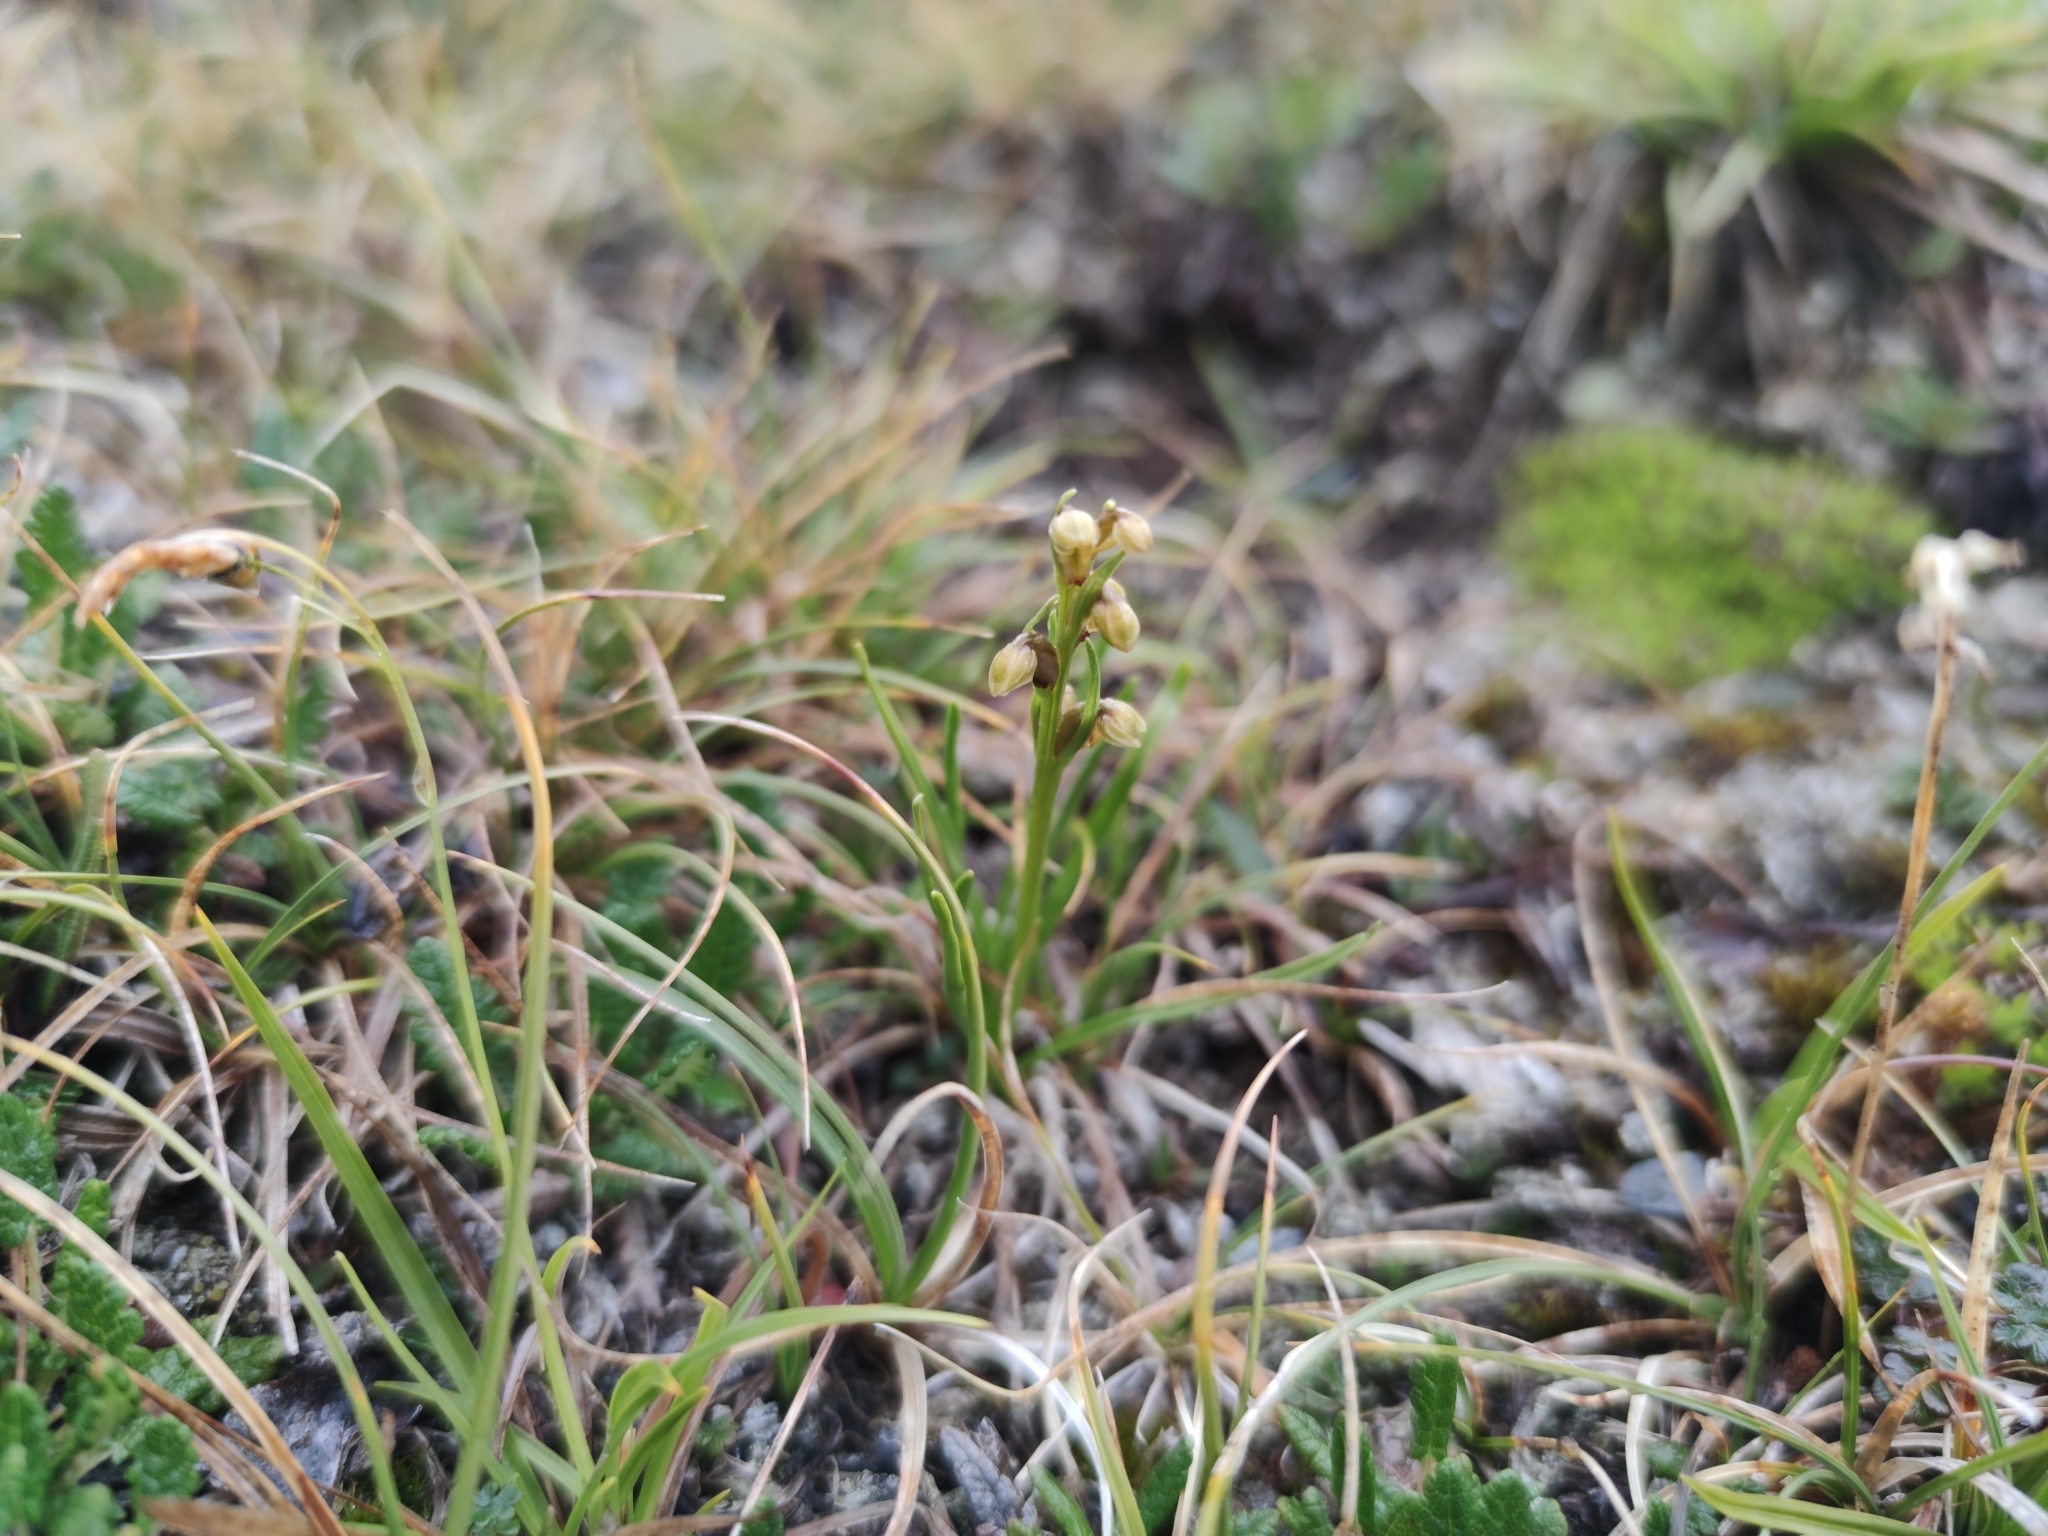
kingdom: Plantae
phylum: Tracheophyta
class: Liliopsida
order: Asparagales
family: Orchidaceae
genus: Chamorchis
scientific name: Chamorchis alpina
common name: Alpine chamorchis
